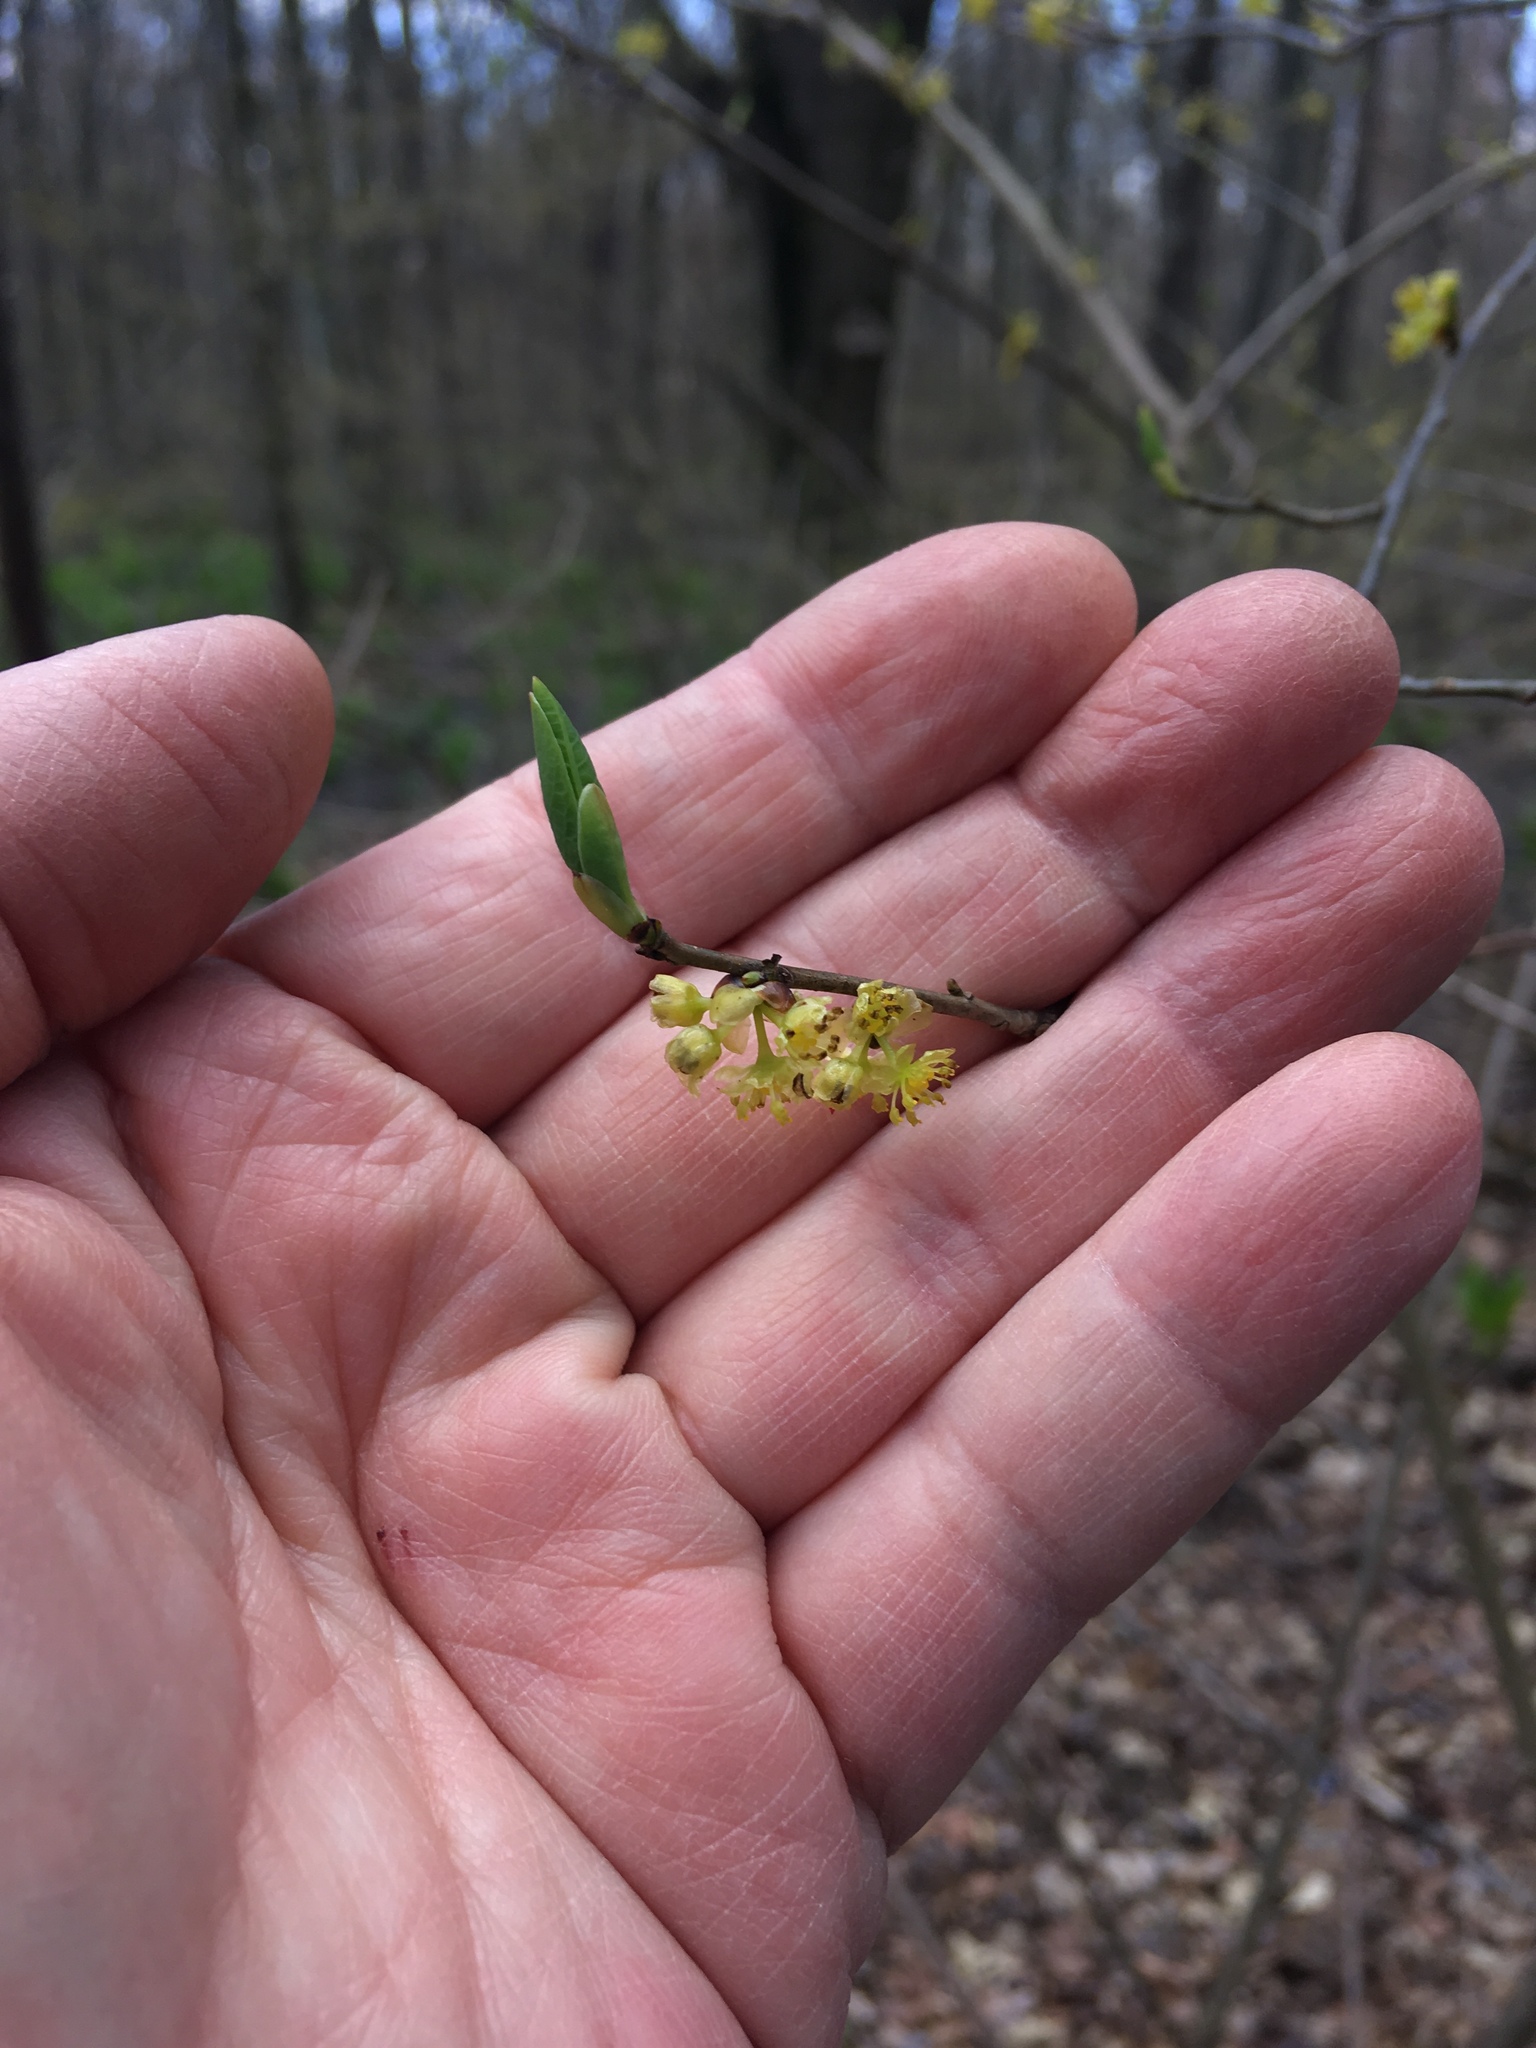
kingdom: Plantae
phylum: Tracheophyta
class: Magnoliopsida
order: Laurales
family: Lauraceae
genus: Lindera
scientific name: Lindera benzoin
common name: Spicebush
